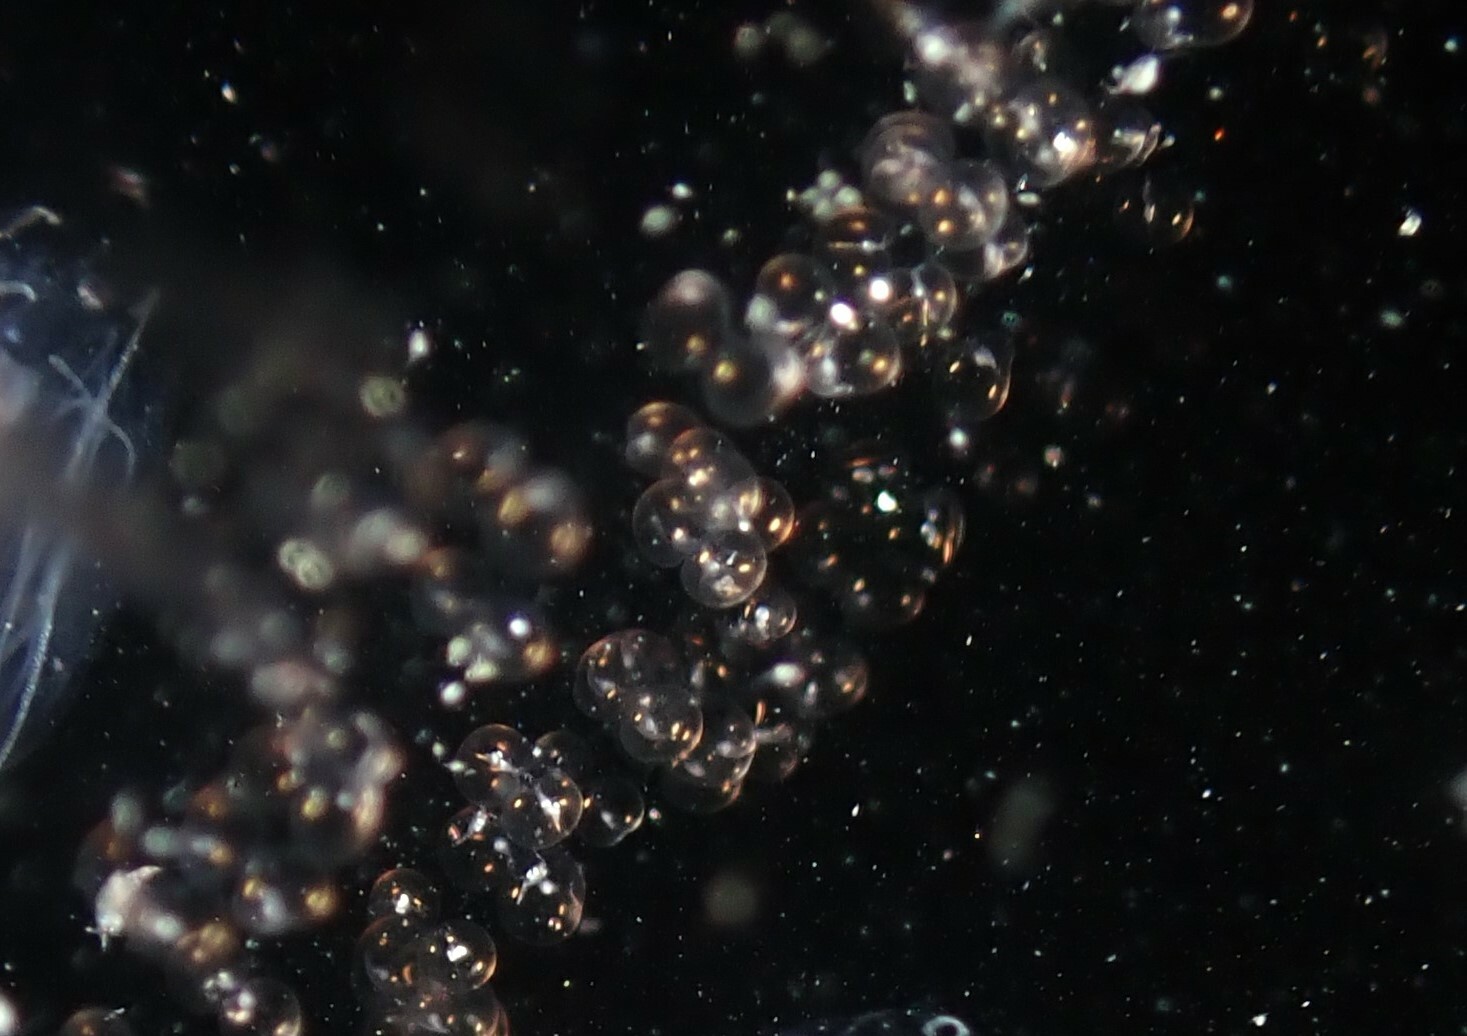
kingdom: Chromista
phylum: Myzozoa
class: Dinophyceae
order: Noctilucales
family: Noctilucaceae
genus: Noctiluca
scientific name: Noctiluca scintillans
